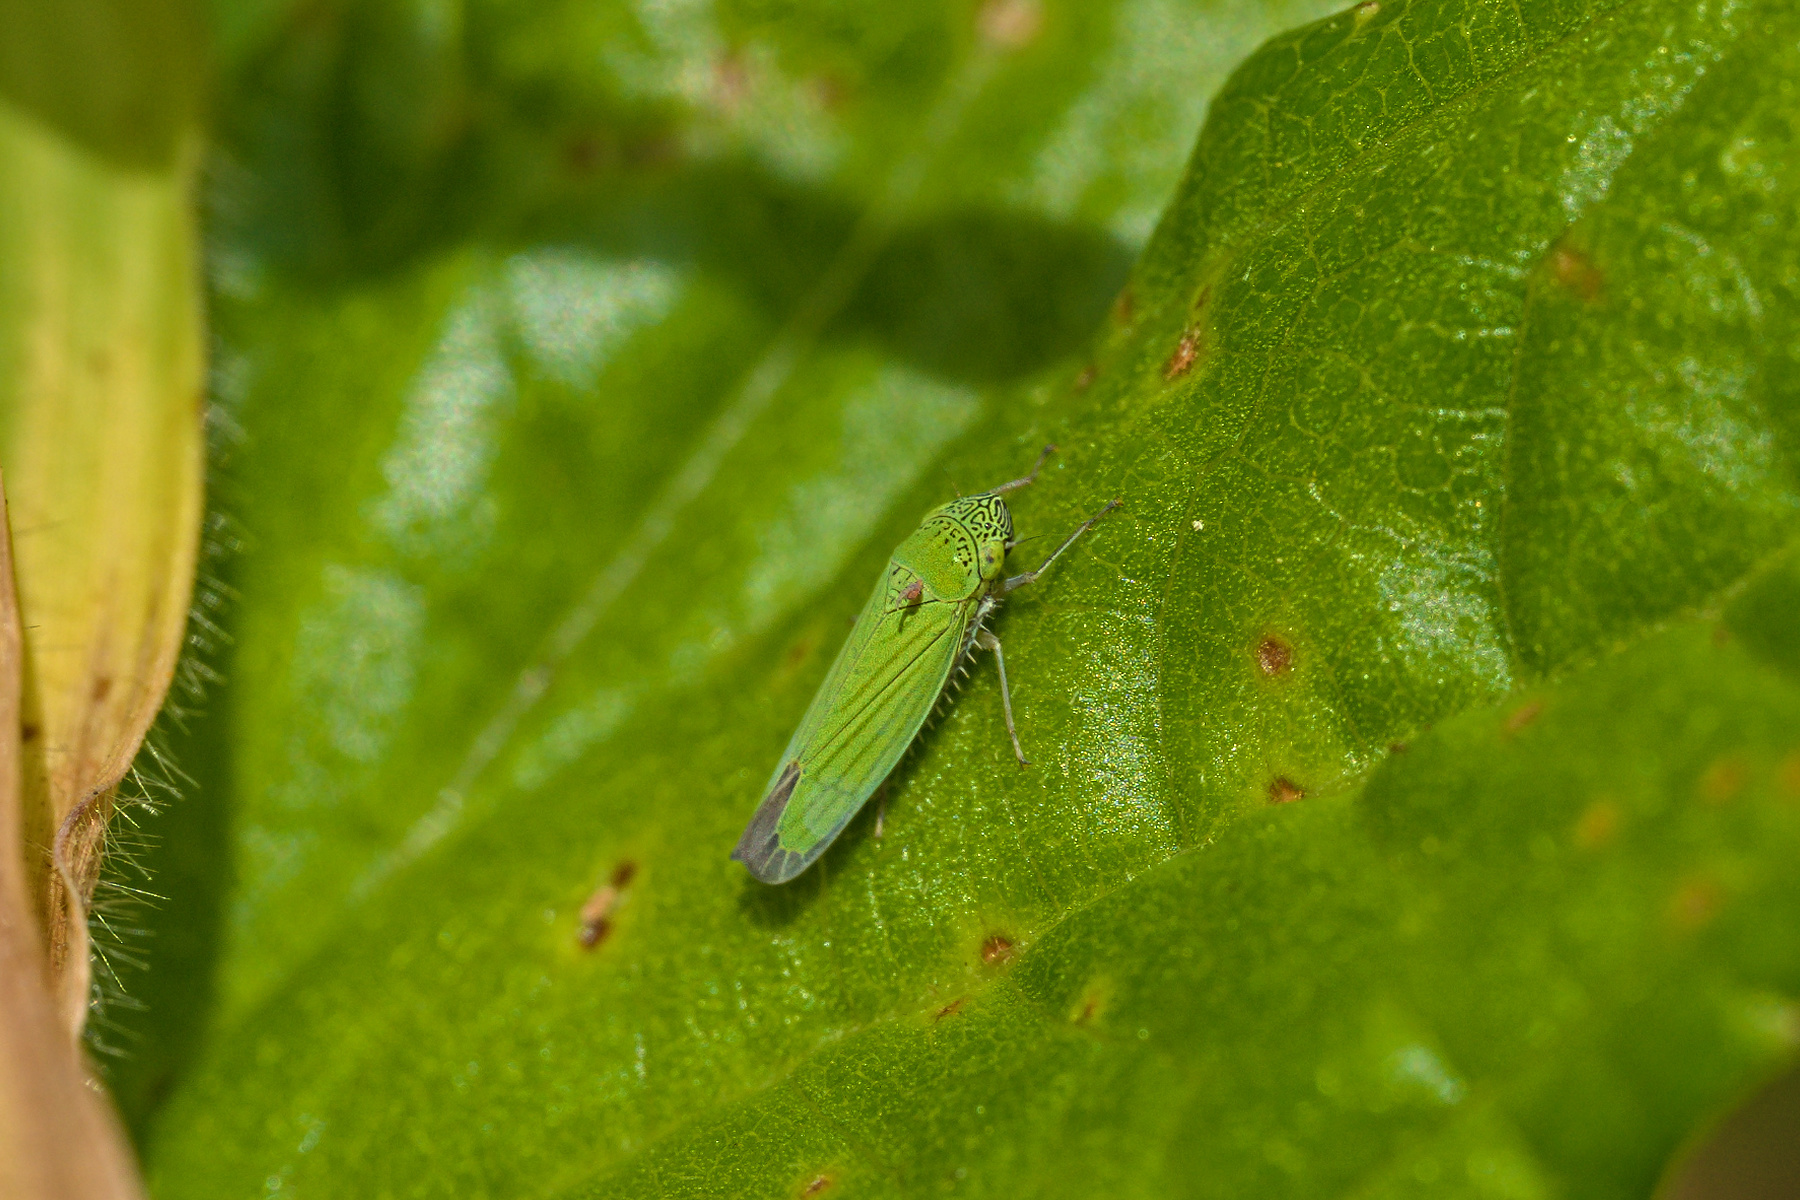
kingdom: Animalia
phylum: Arthropoda
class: Insecta
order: Hemiptera
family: Cicadellidae
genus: Hortensia
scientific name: Hortensia similis
